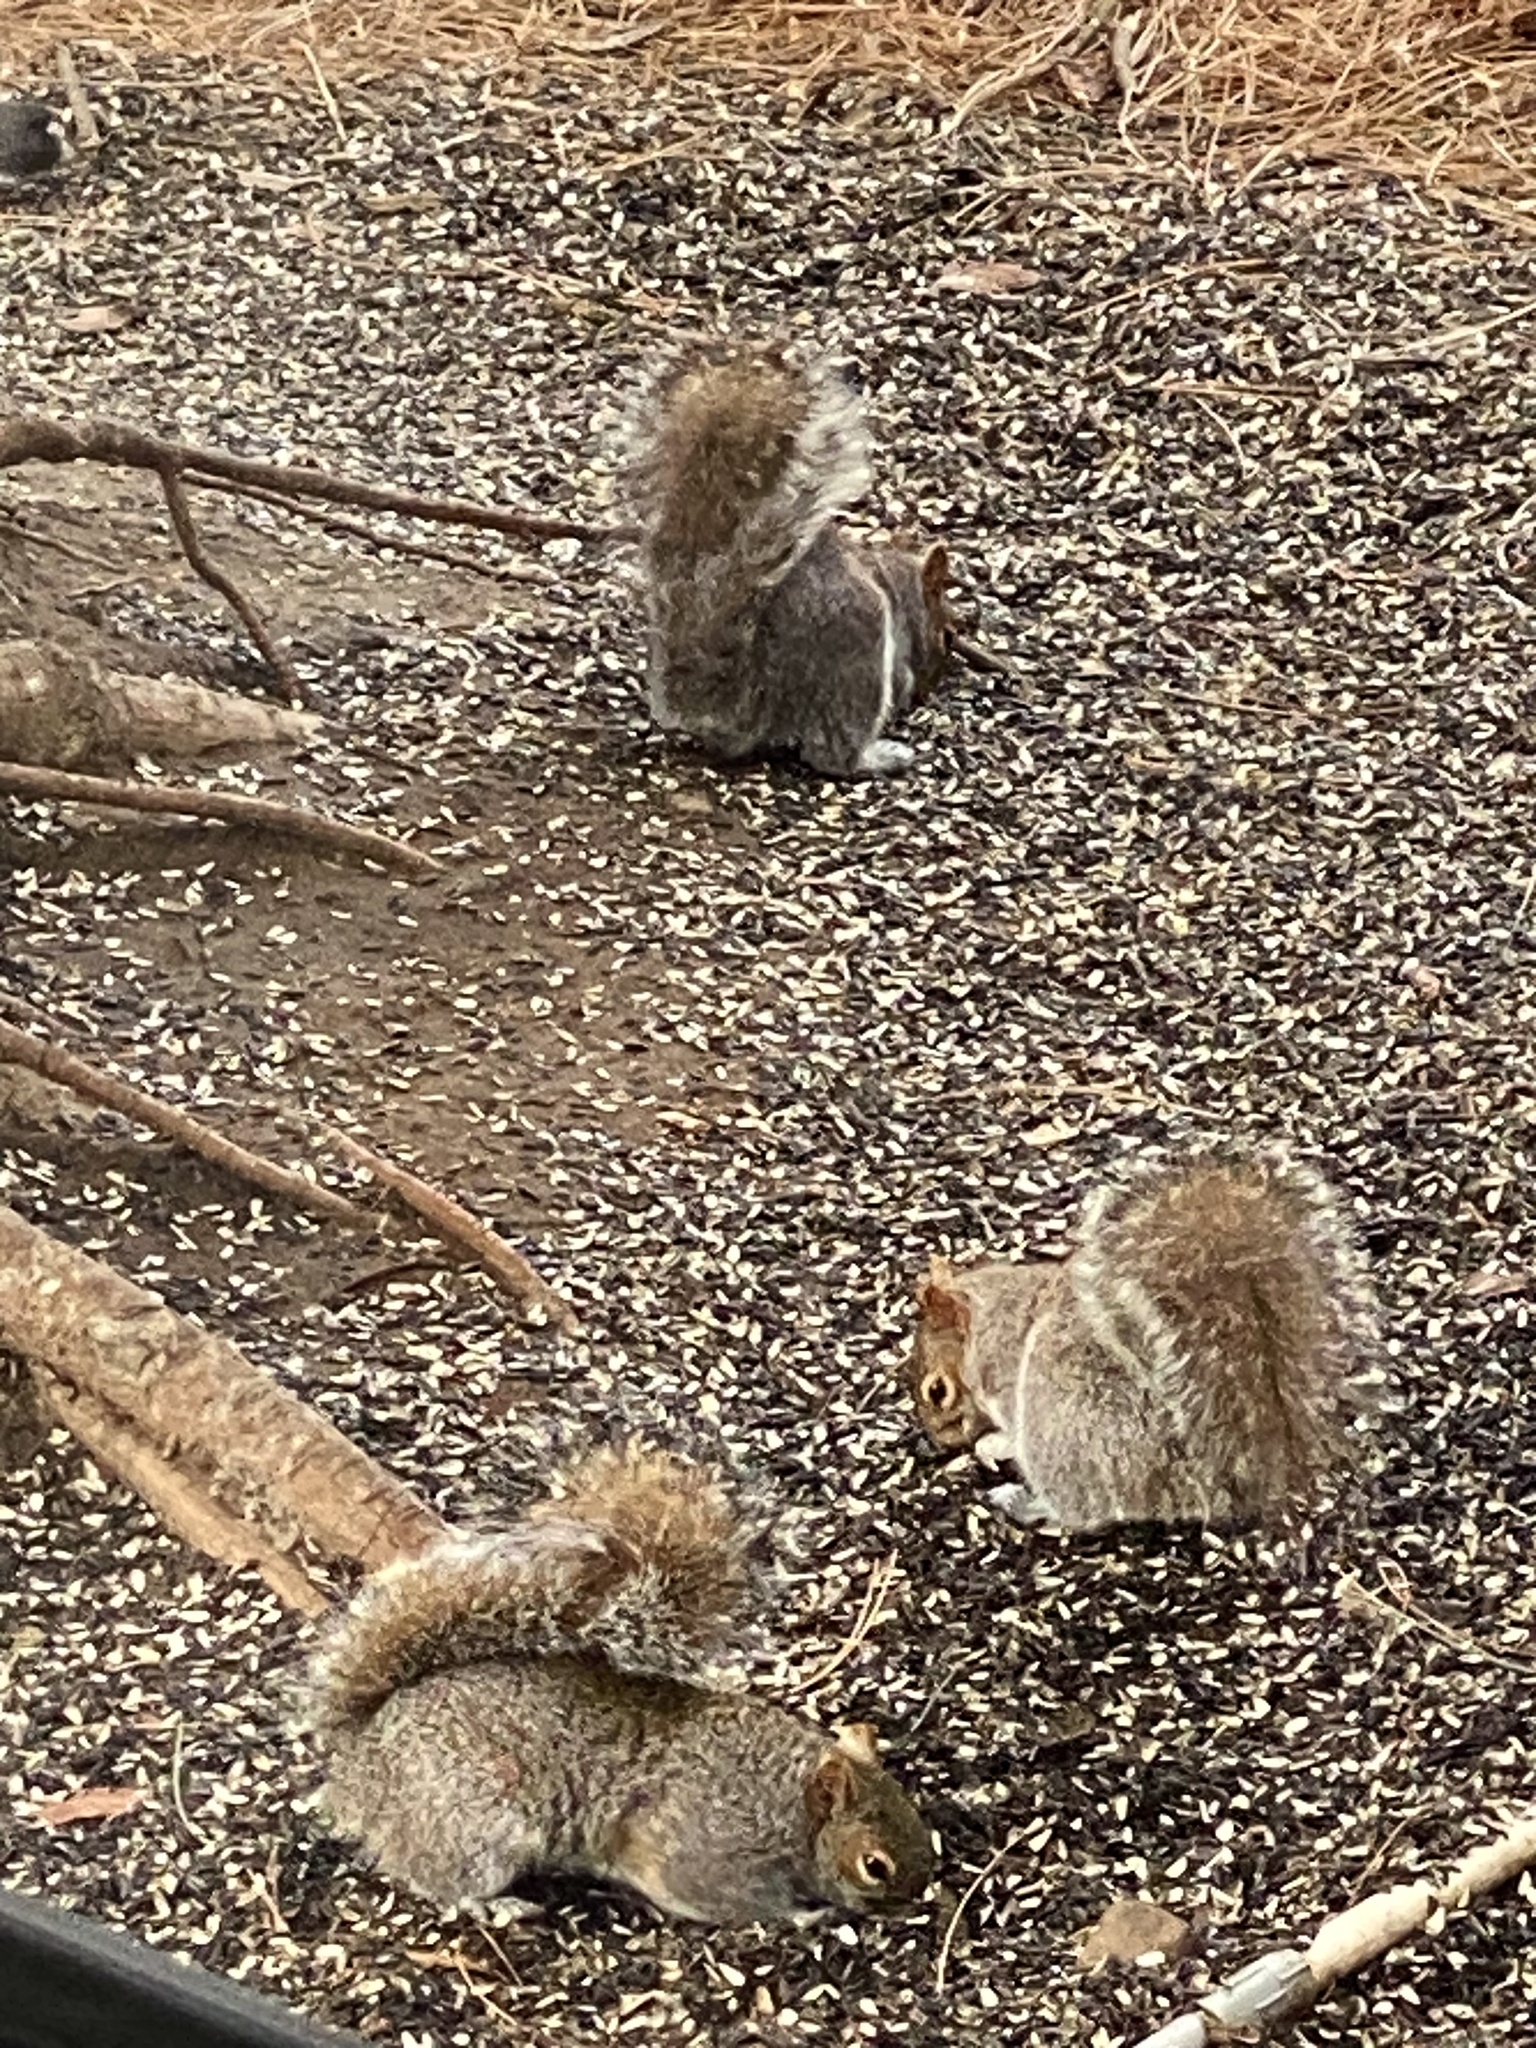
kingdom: Animalia
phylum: Chordata
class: Mammalia
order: Rodentia
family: Sciuridae
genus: Sciurus
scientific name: Sciurus carolinensis
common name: Eastern gray squirrel
